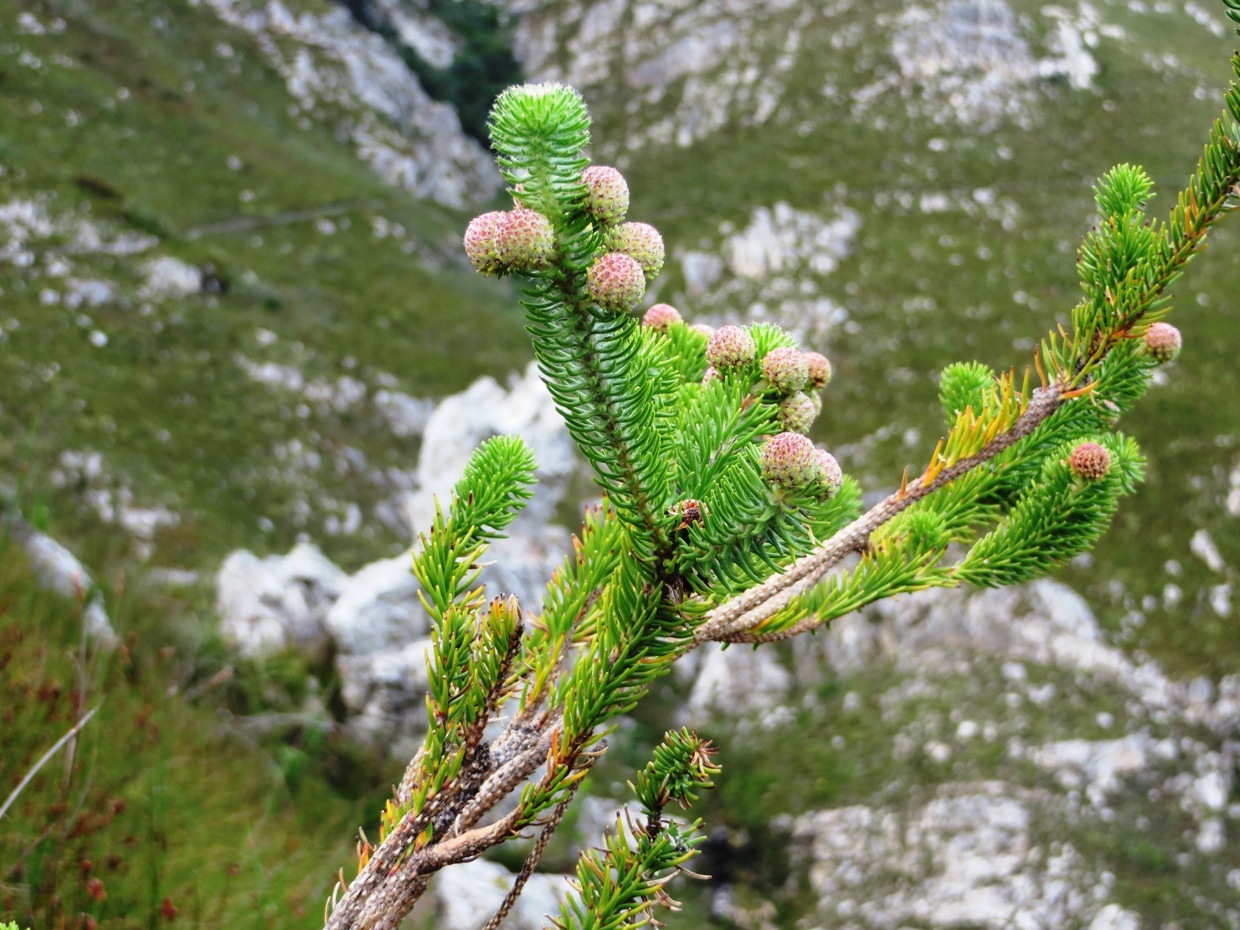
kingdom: Plantae
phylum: Tracheophyta
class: Magnoliopsida
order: Bruniales
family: Bruniaceae
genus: Berzelia
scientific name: Berzelia rubra
